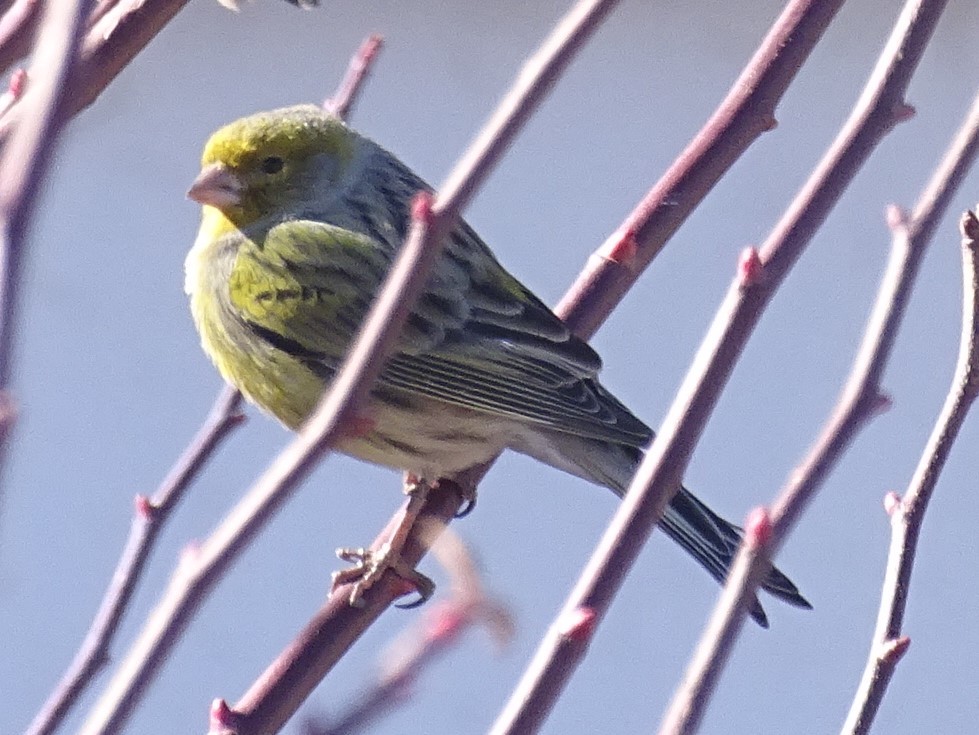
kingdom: Animalia
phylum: Chordata
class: Aves
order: Passeriformes
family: Fringillidae
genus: Serinus
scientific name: Serinus canaria
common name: Atlantic canary
